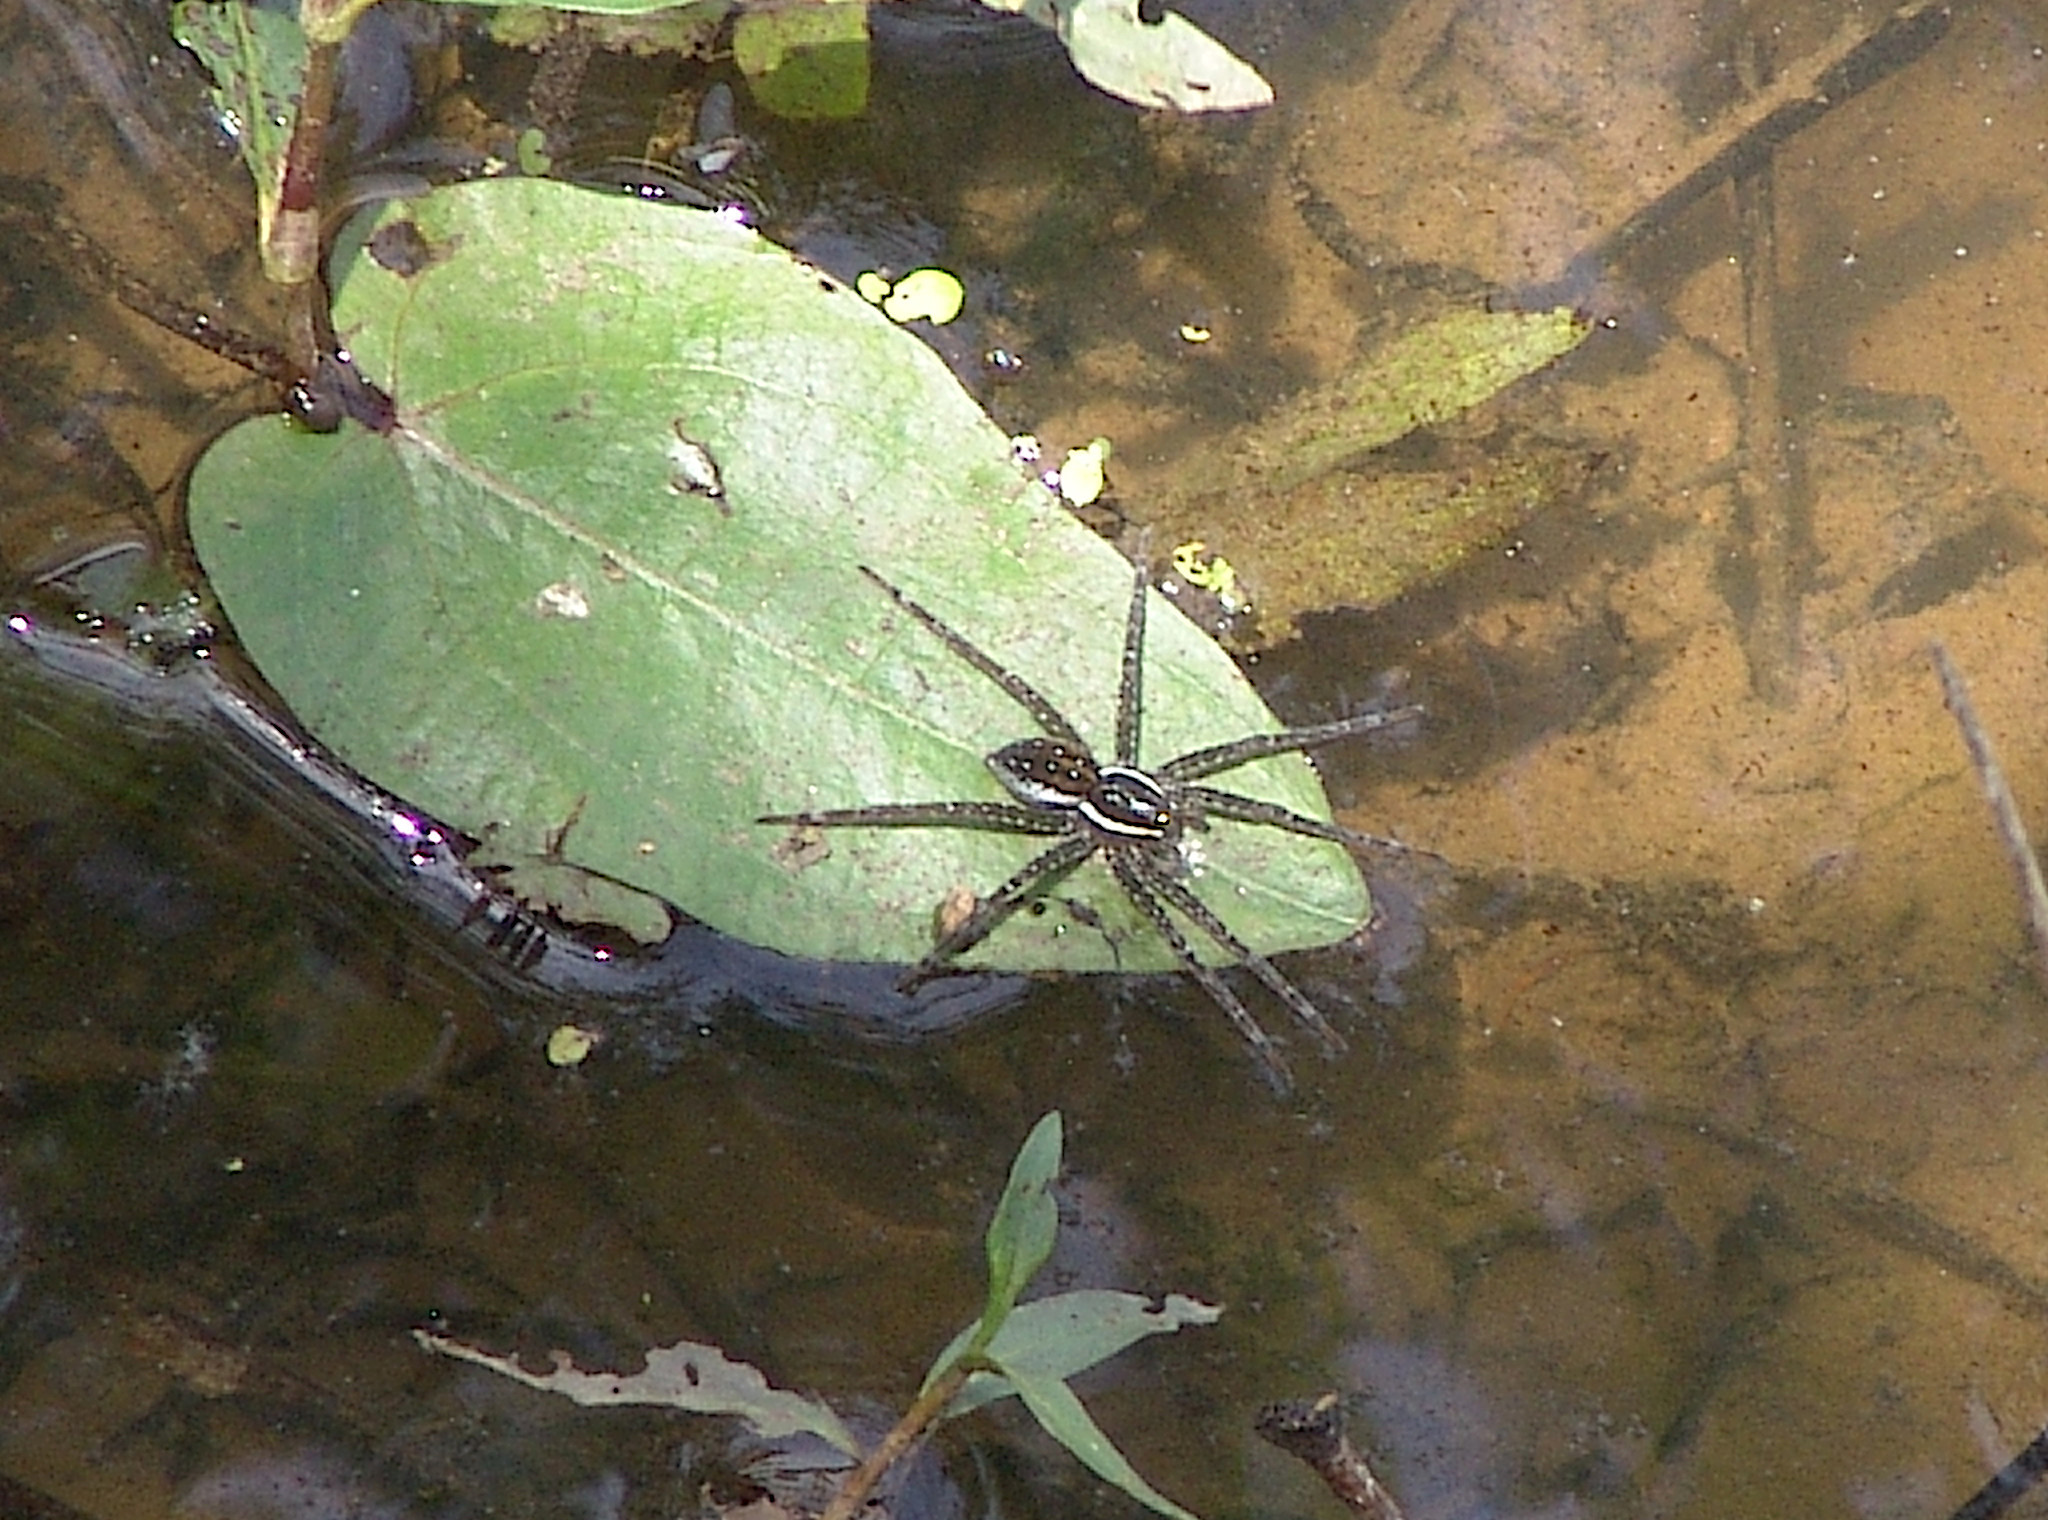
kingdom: Animalia
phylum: Arthropoda
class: Arachnida
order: Araneae
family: Pisauridae
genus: Dolomedes
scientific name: Dolomedes triton
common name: Six-spotted fishing spider
